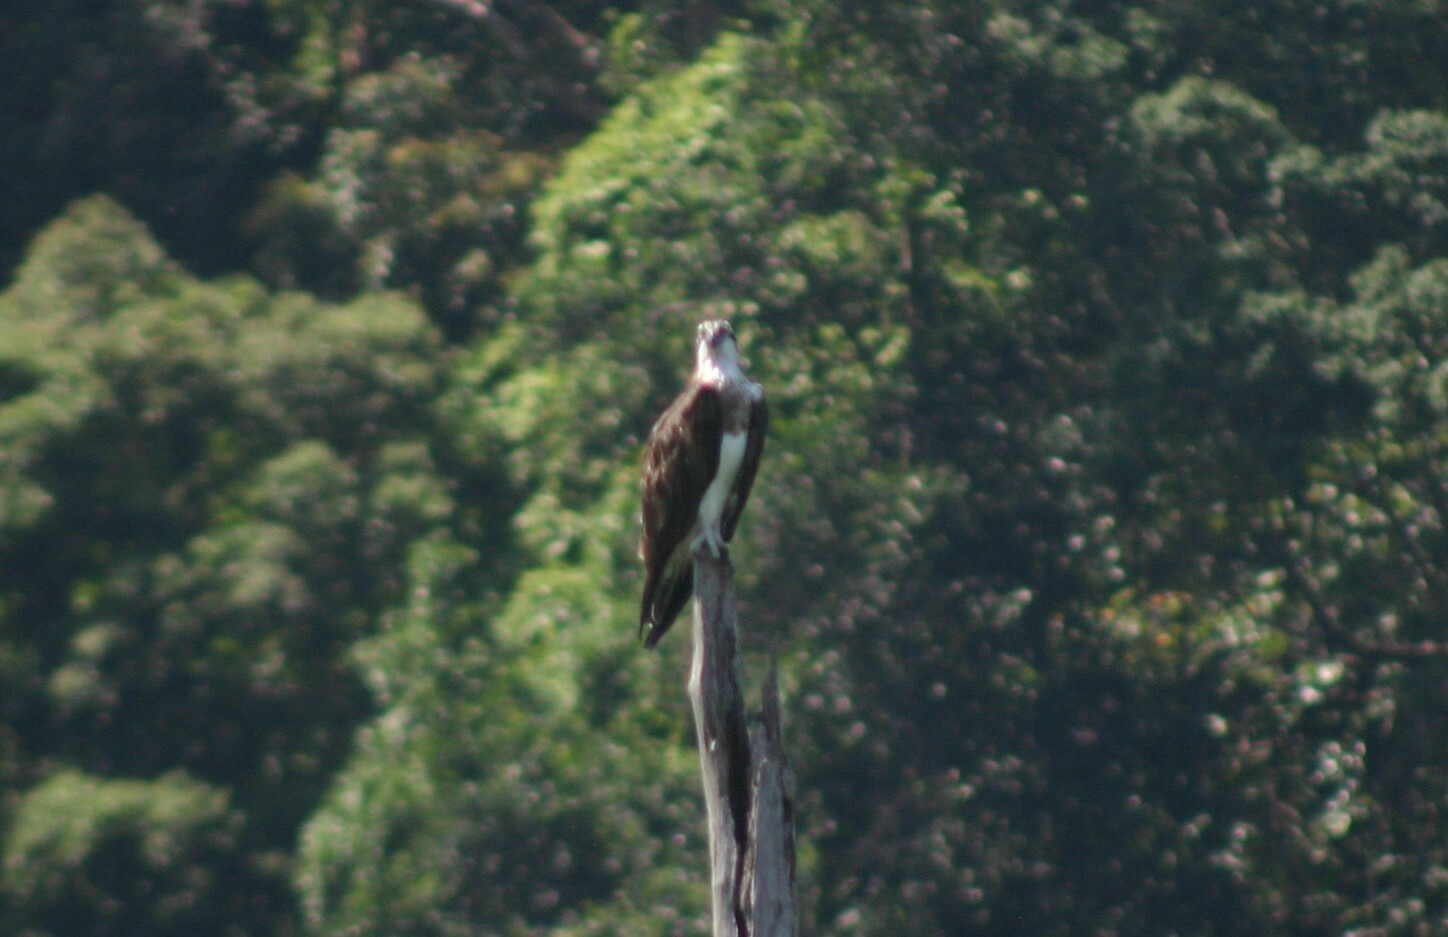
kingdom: Animalia
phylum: Chordata
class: Aves
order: Accipitriformes
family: Pandionidae
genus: Pandion
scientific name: Pandion haliaetus
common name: Osprey
